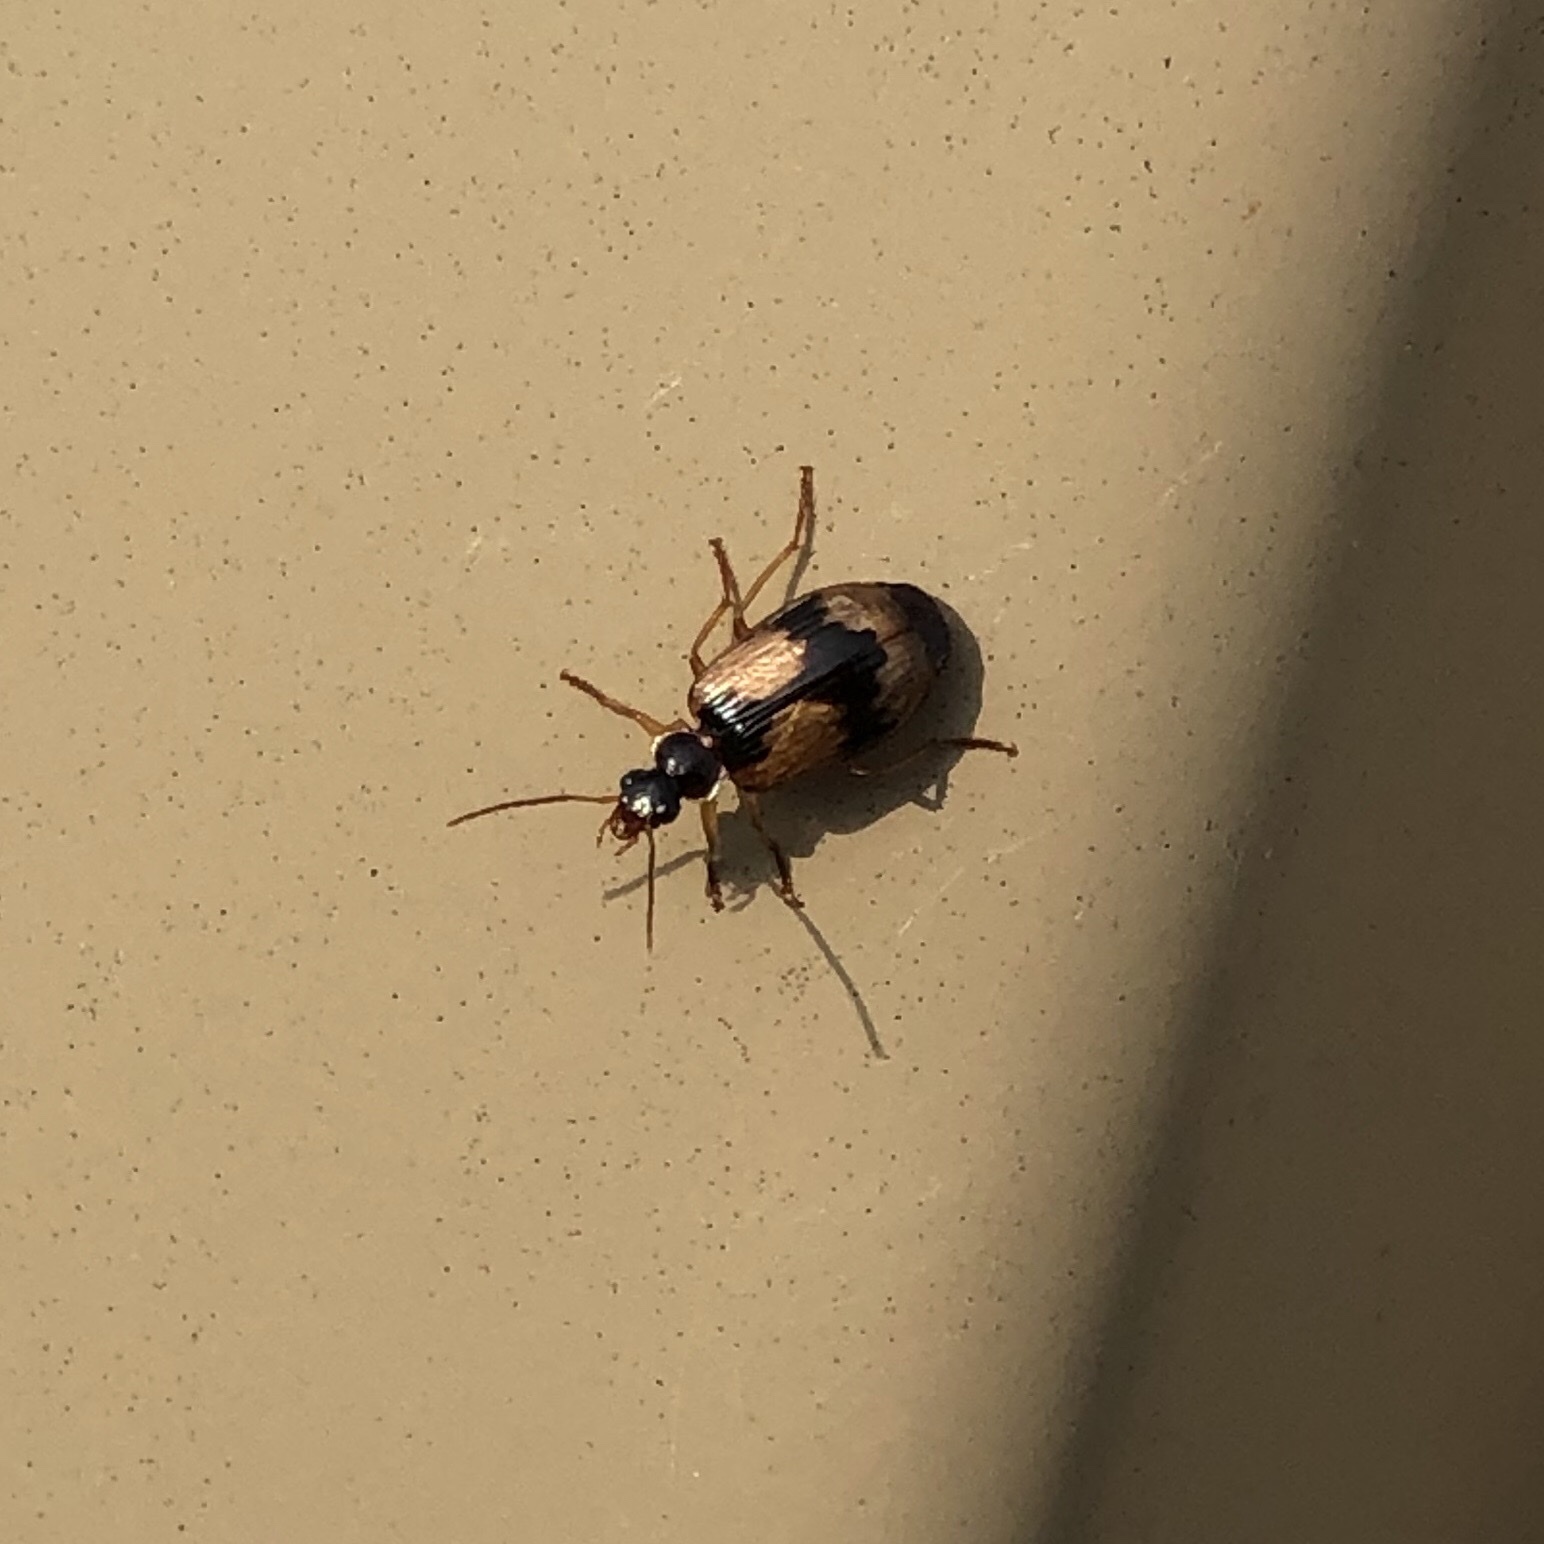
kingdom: Animalia
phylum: Arthropoda
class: Insecta
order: Coleoptera
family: Carabidae
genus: Lebia
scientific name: Lebia fuscata
